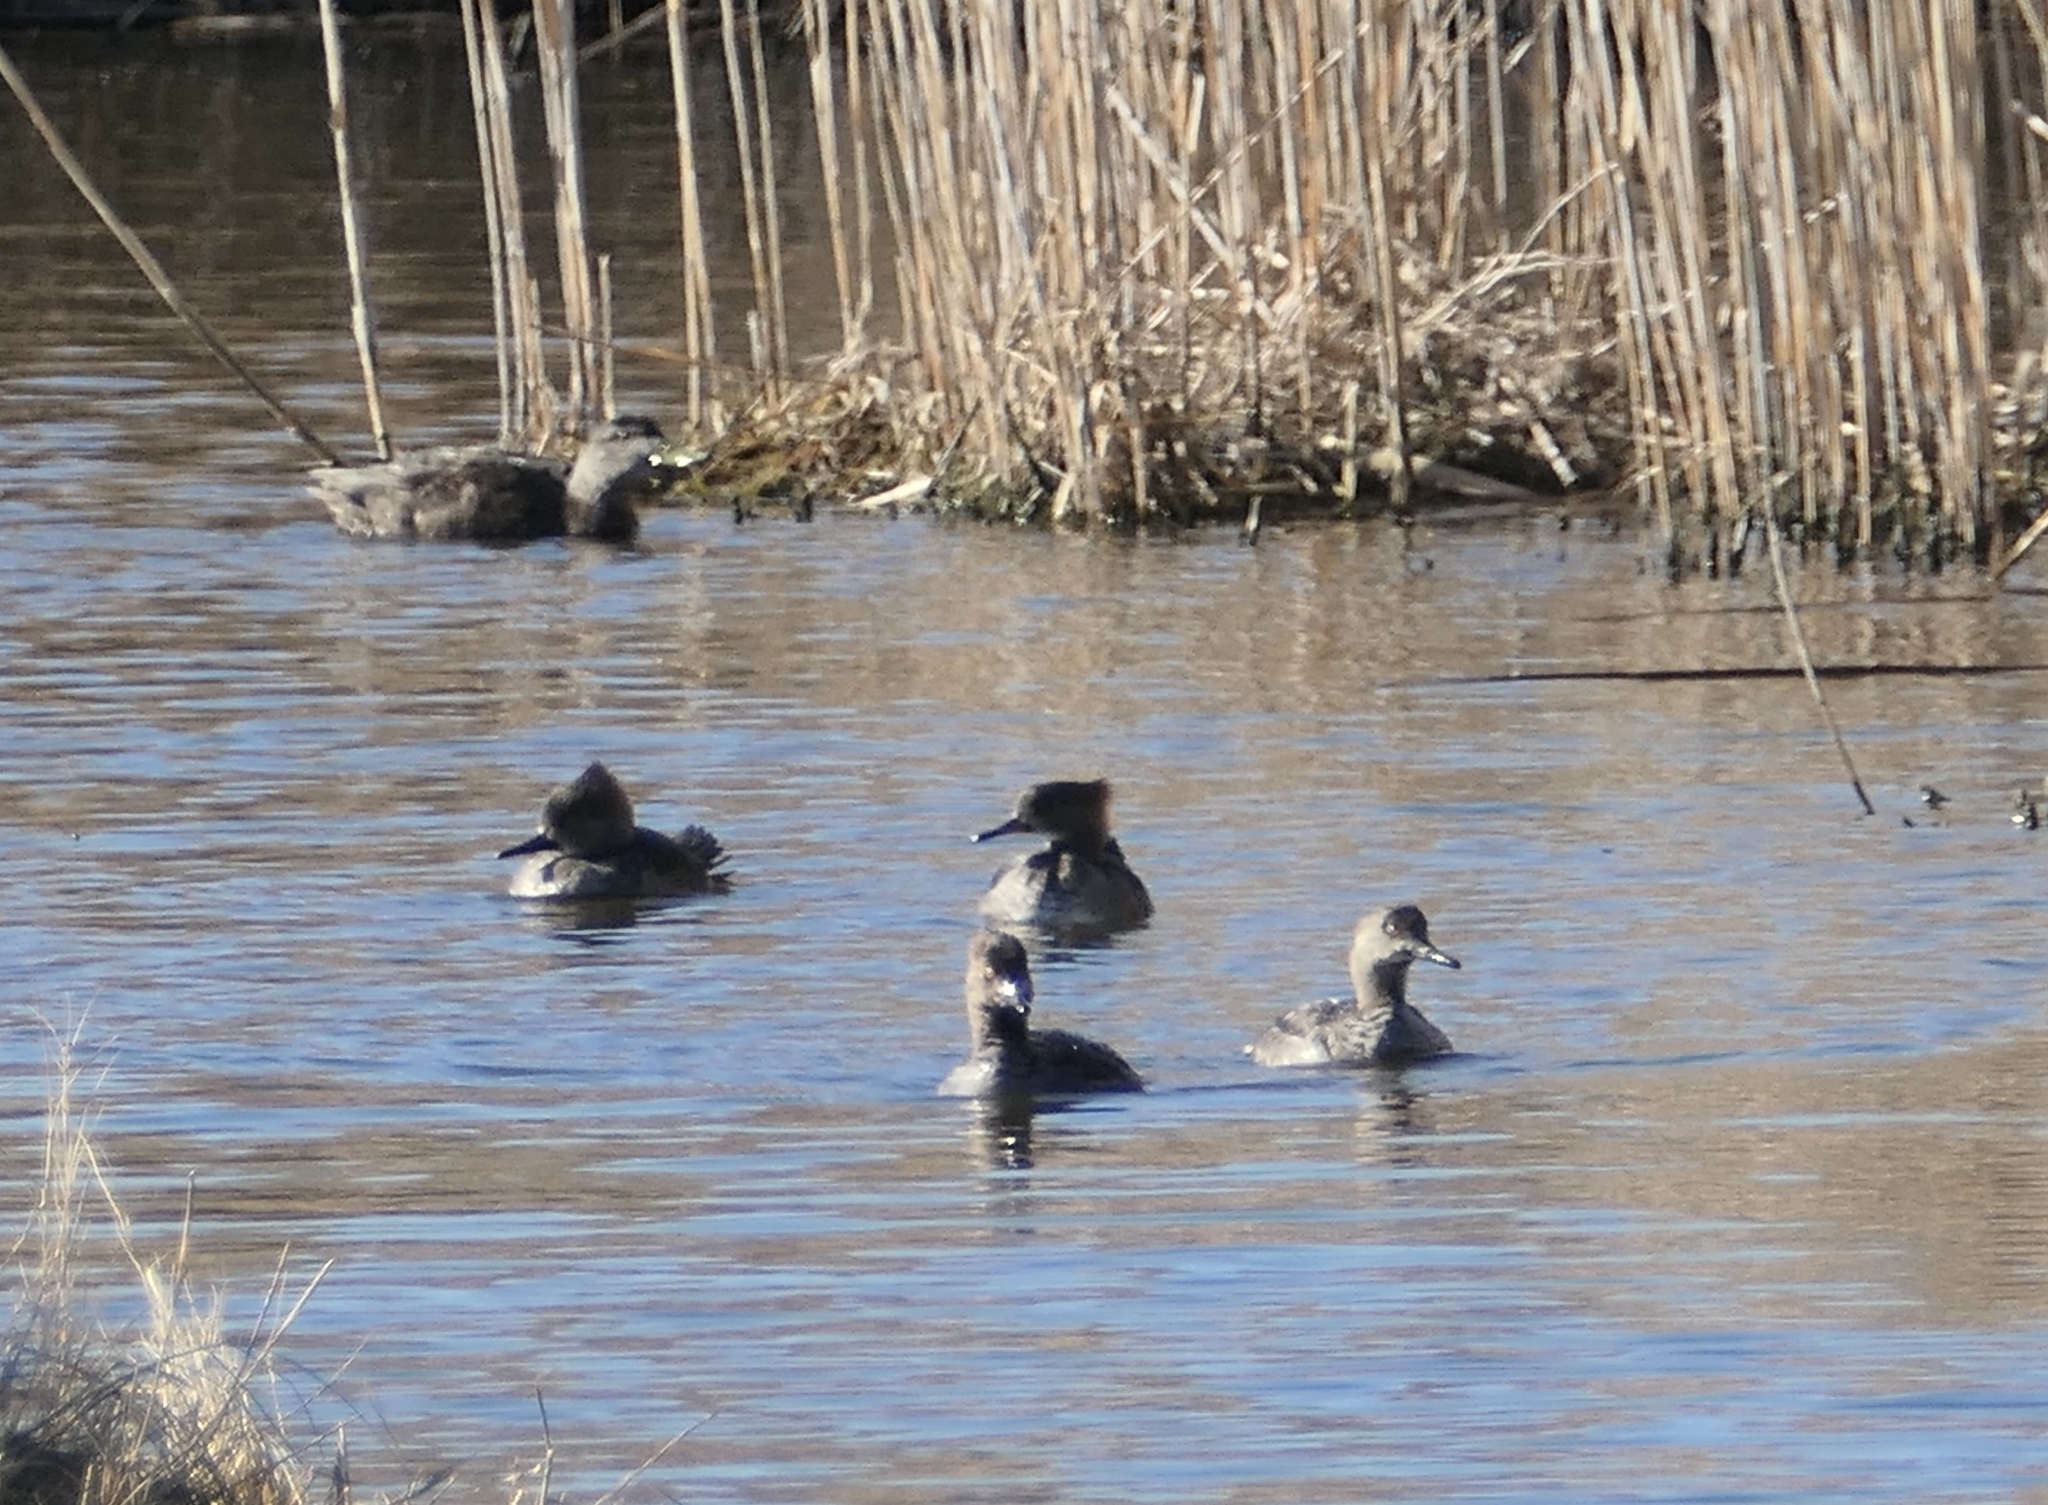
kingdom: Animalia
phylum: Chordata
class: Aves
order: Anseriformes
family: Anatidae
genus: Lophodytes
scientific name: Lophodytes cucullatus
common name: Hooded merganser
